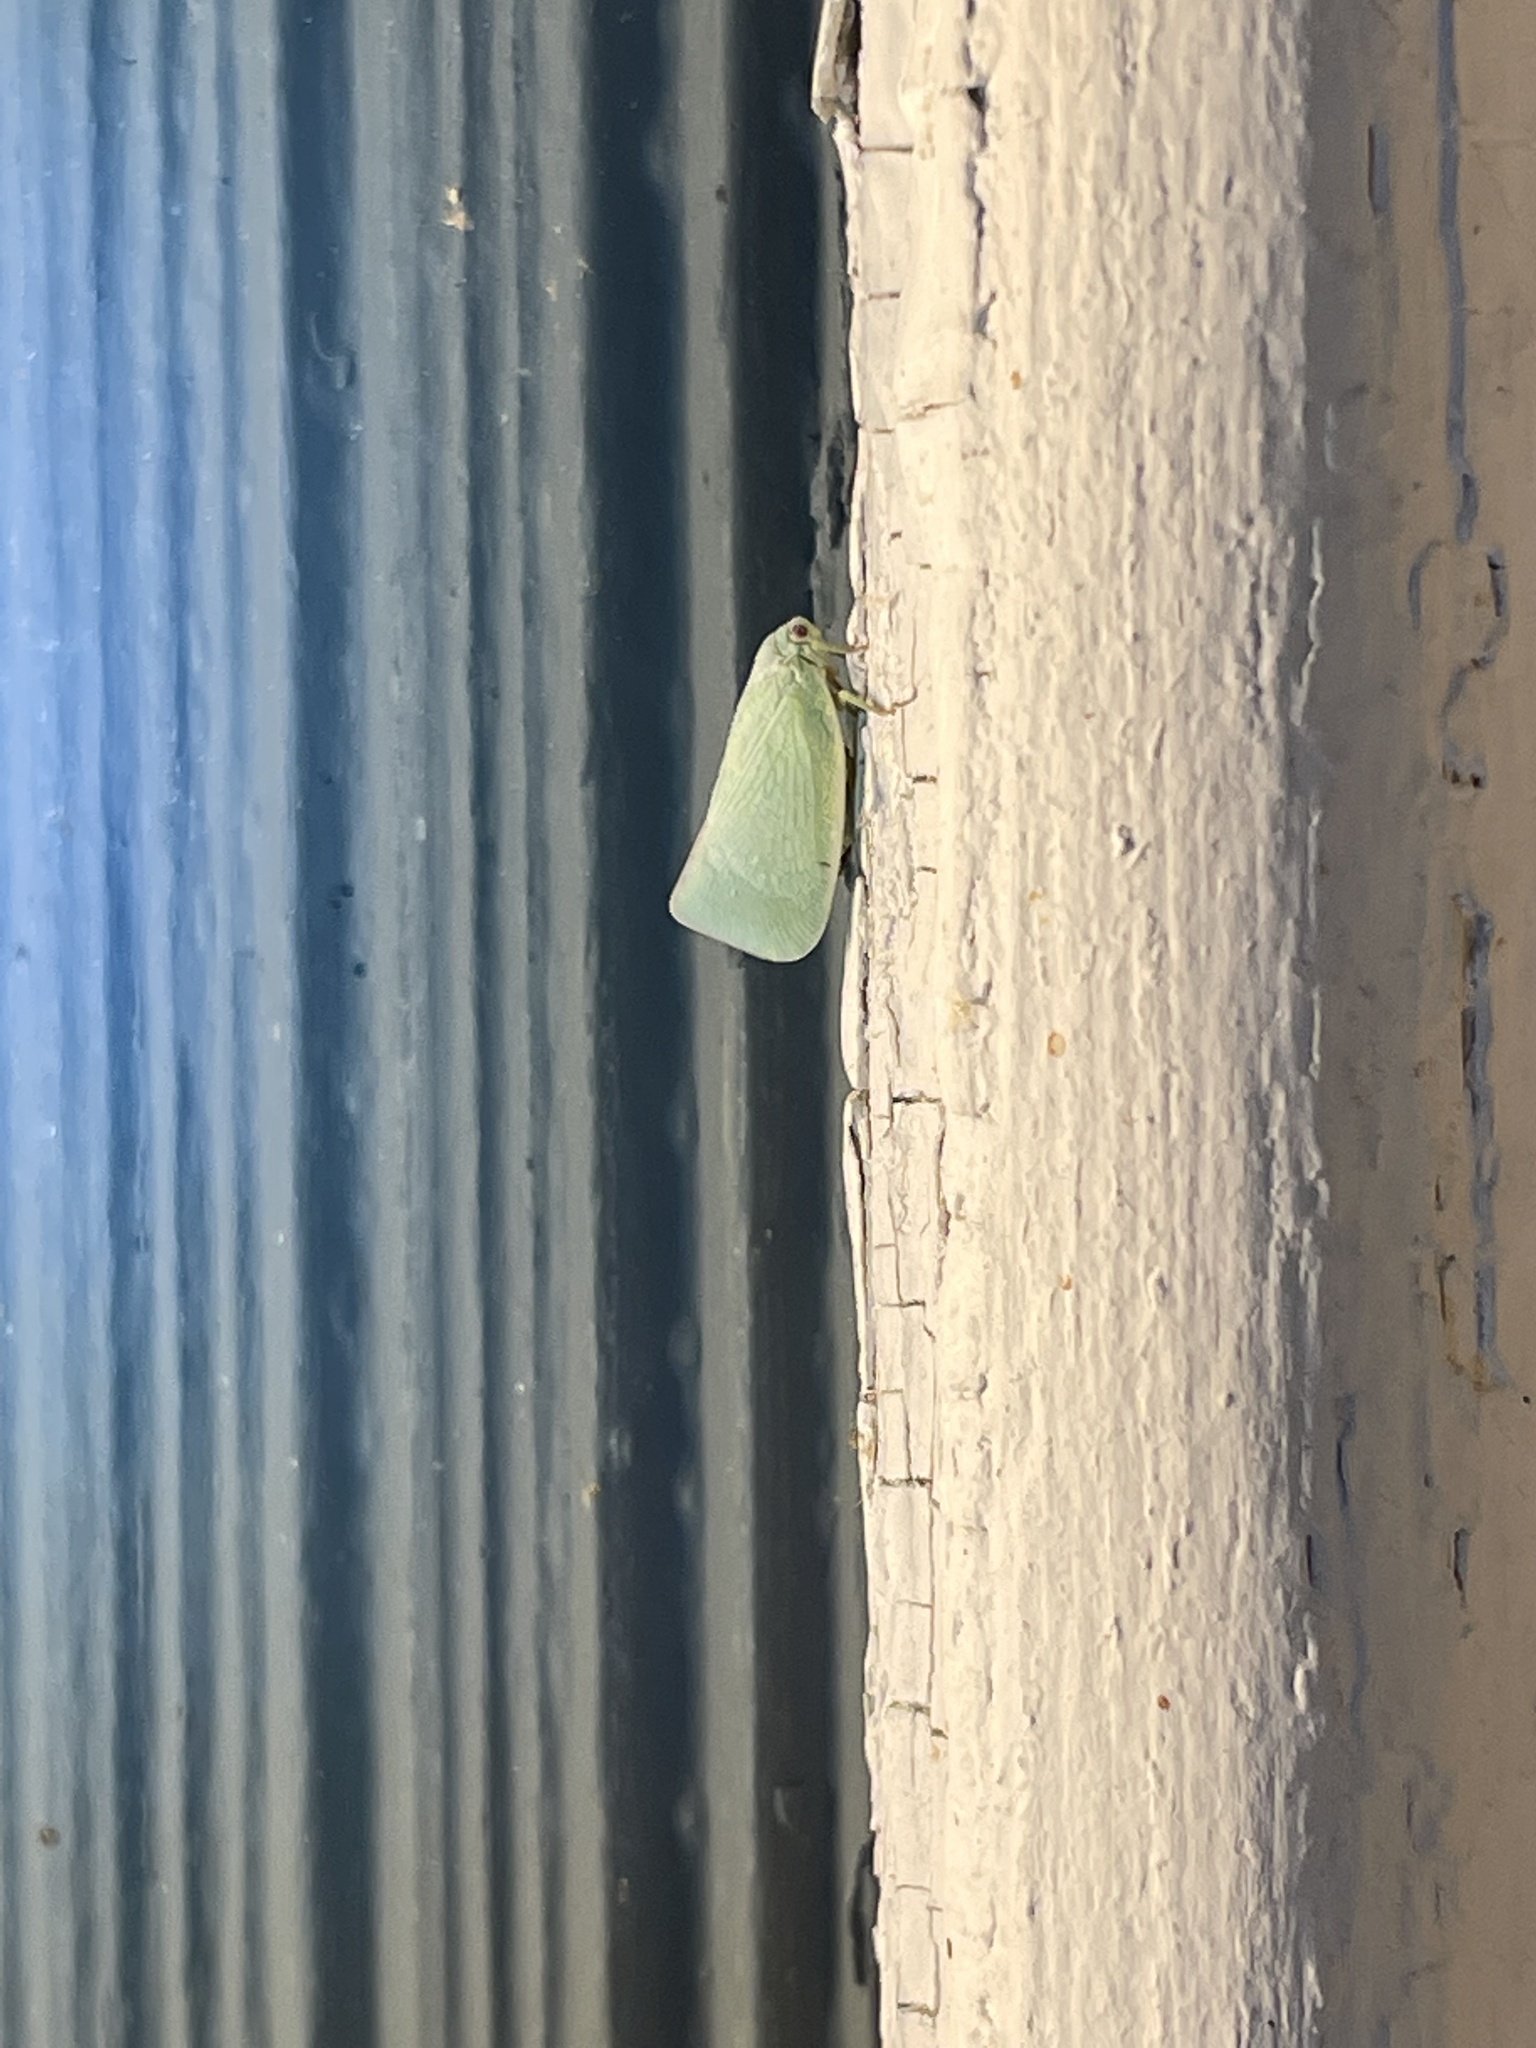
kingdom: Animalia
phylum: Arthropoda
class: Insecta
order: Hemiptera
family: Flatidae
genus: Flatormenis
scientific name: Flatormenis proxima
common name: Northern flatid planthopper
